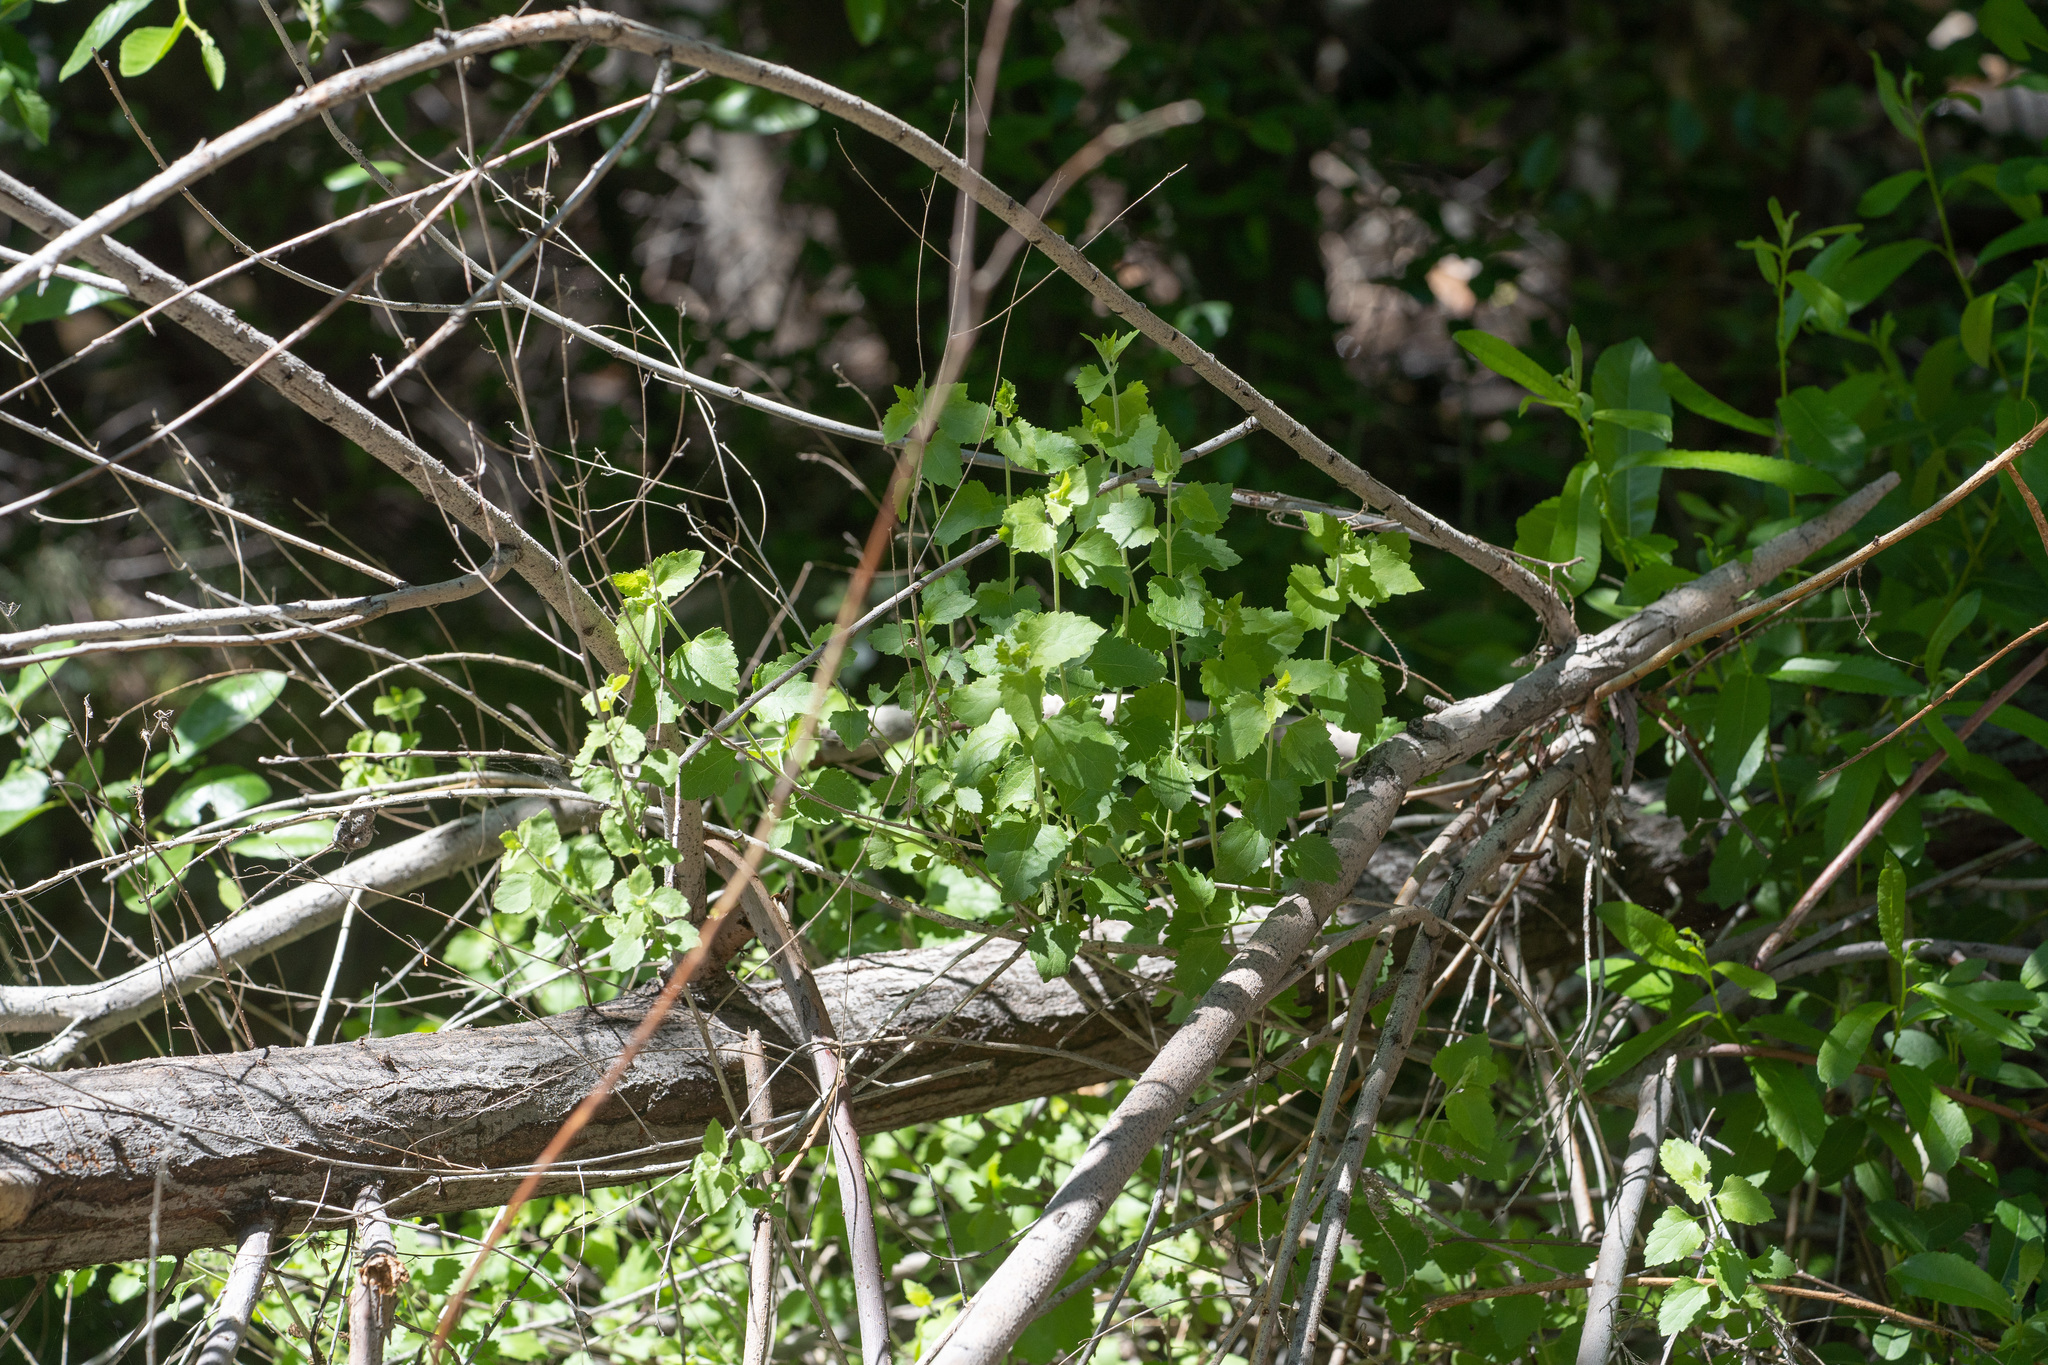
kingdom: Plantae
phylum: Tracheophyta
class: Magnoliopsida
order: Asterales
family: Asteraceae
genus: Brickellia
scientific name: Brickellia californica
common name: California brickellbush
